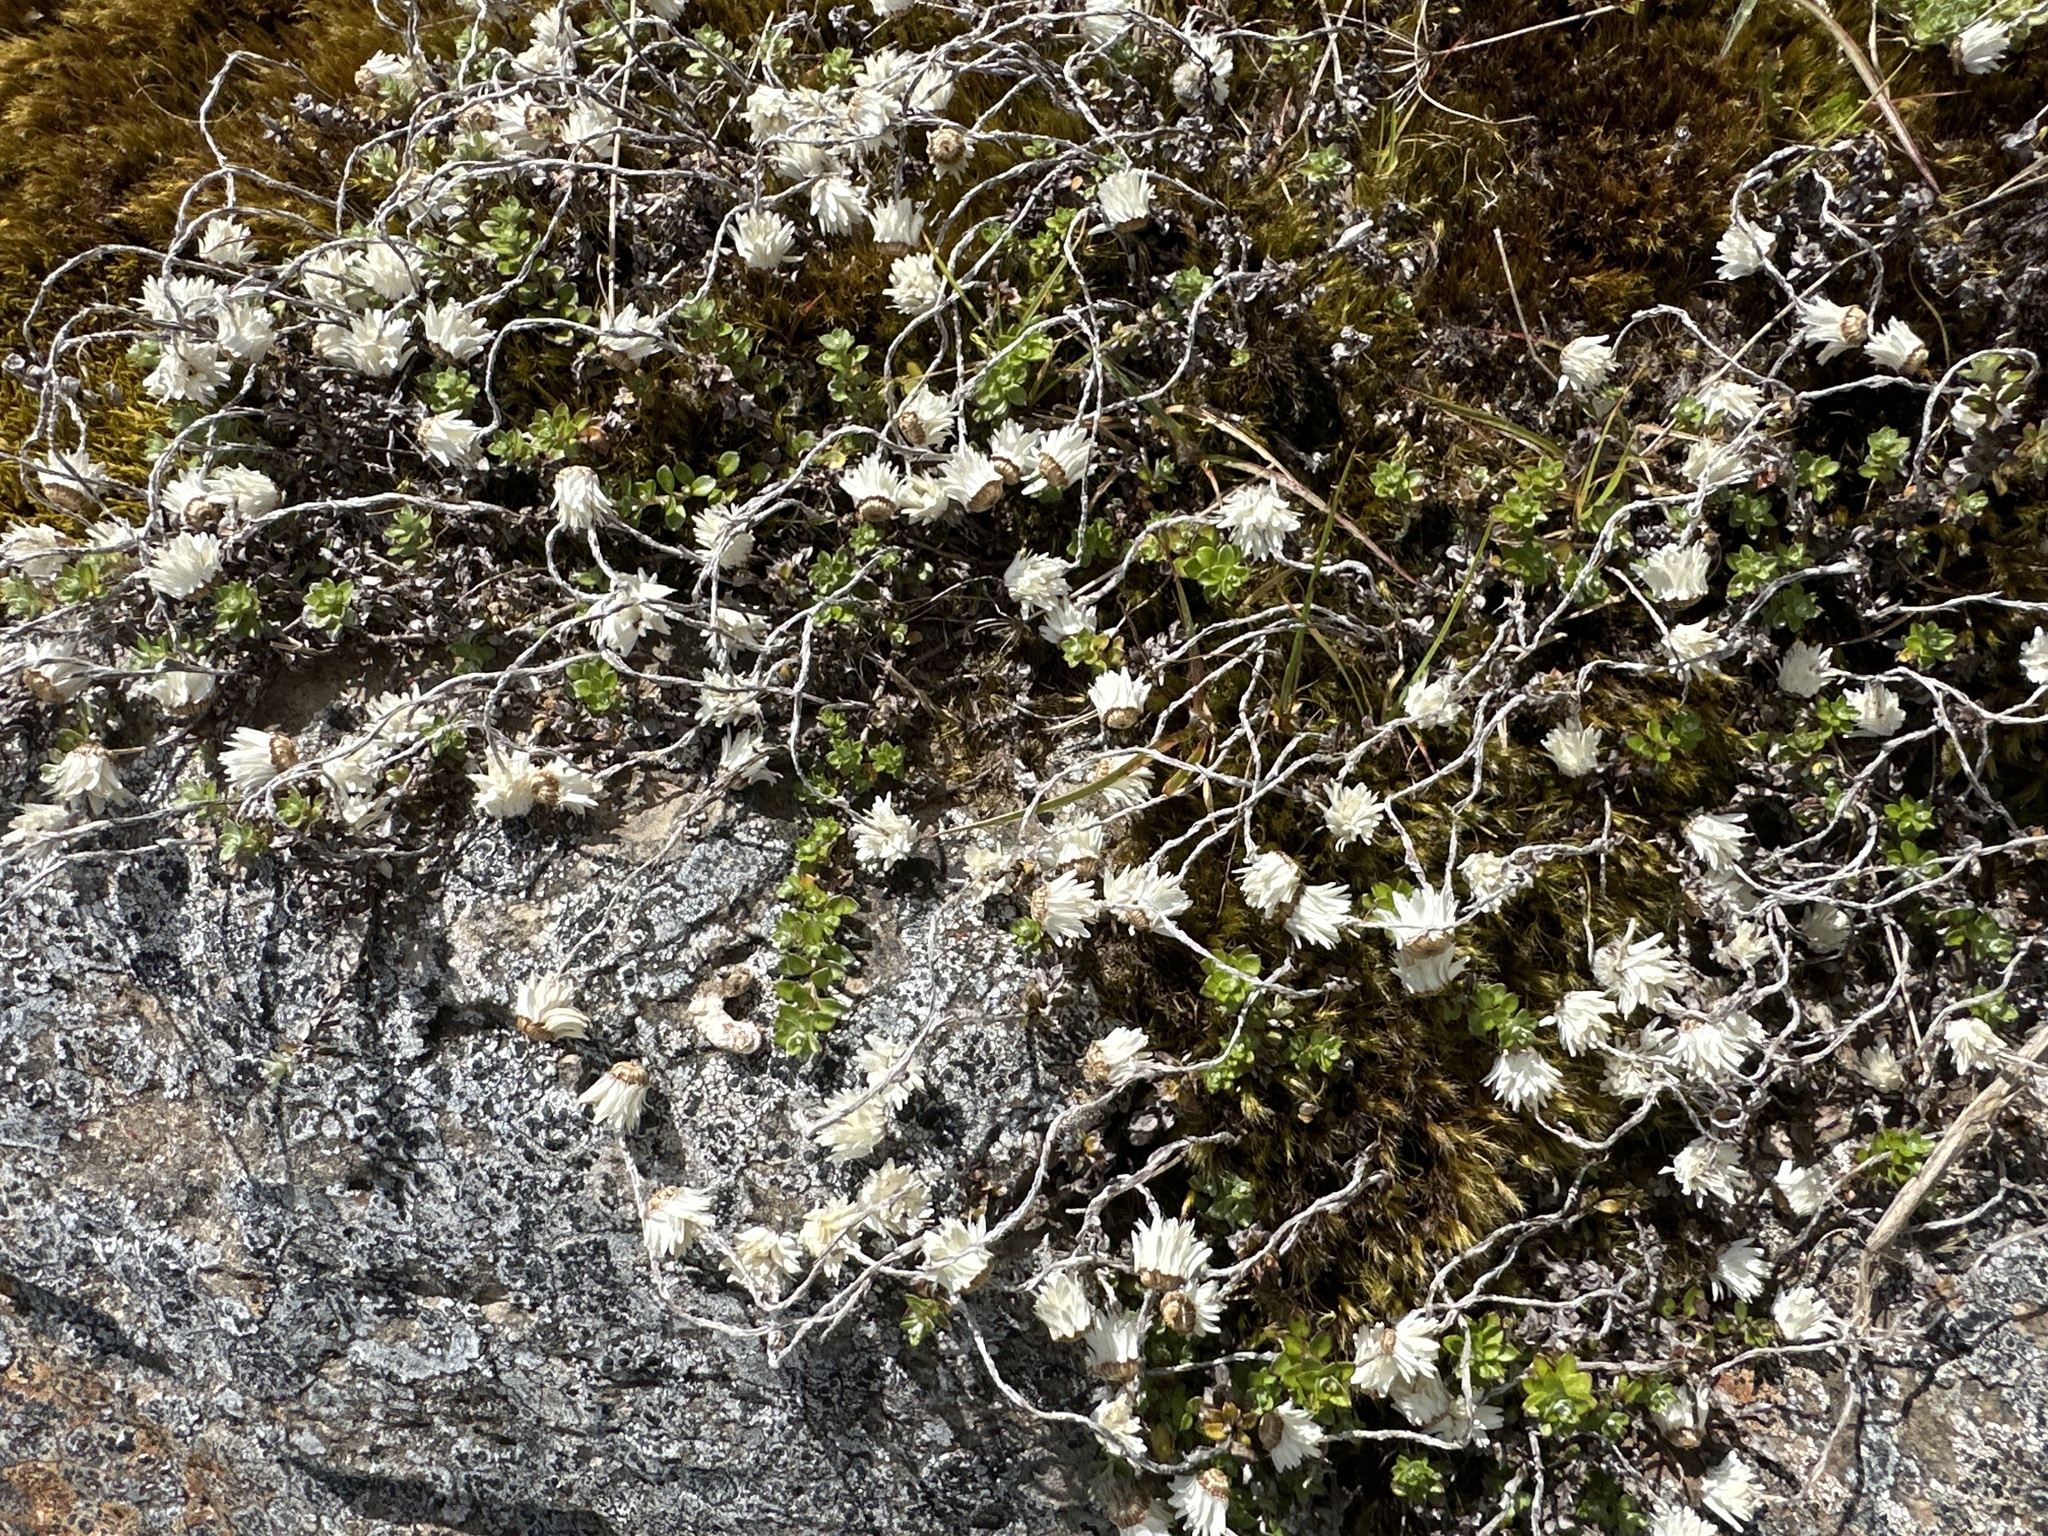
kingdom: Plantae
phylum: Tracheophyta
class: Magnoliopsida
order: Asterales
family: Asteraceae
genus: Anaphalioides
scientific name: Anaphalioides bellidioides
